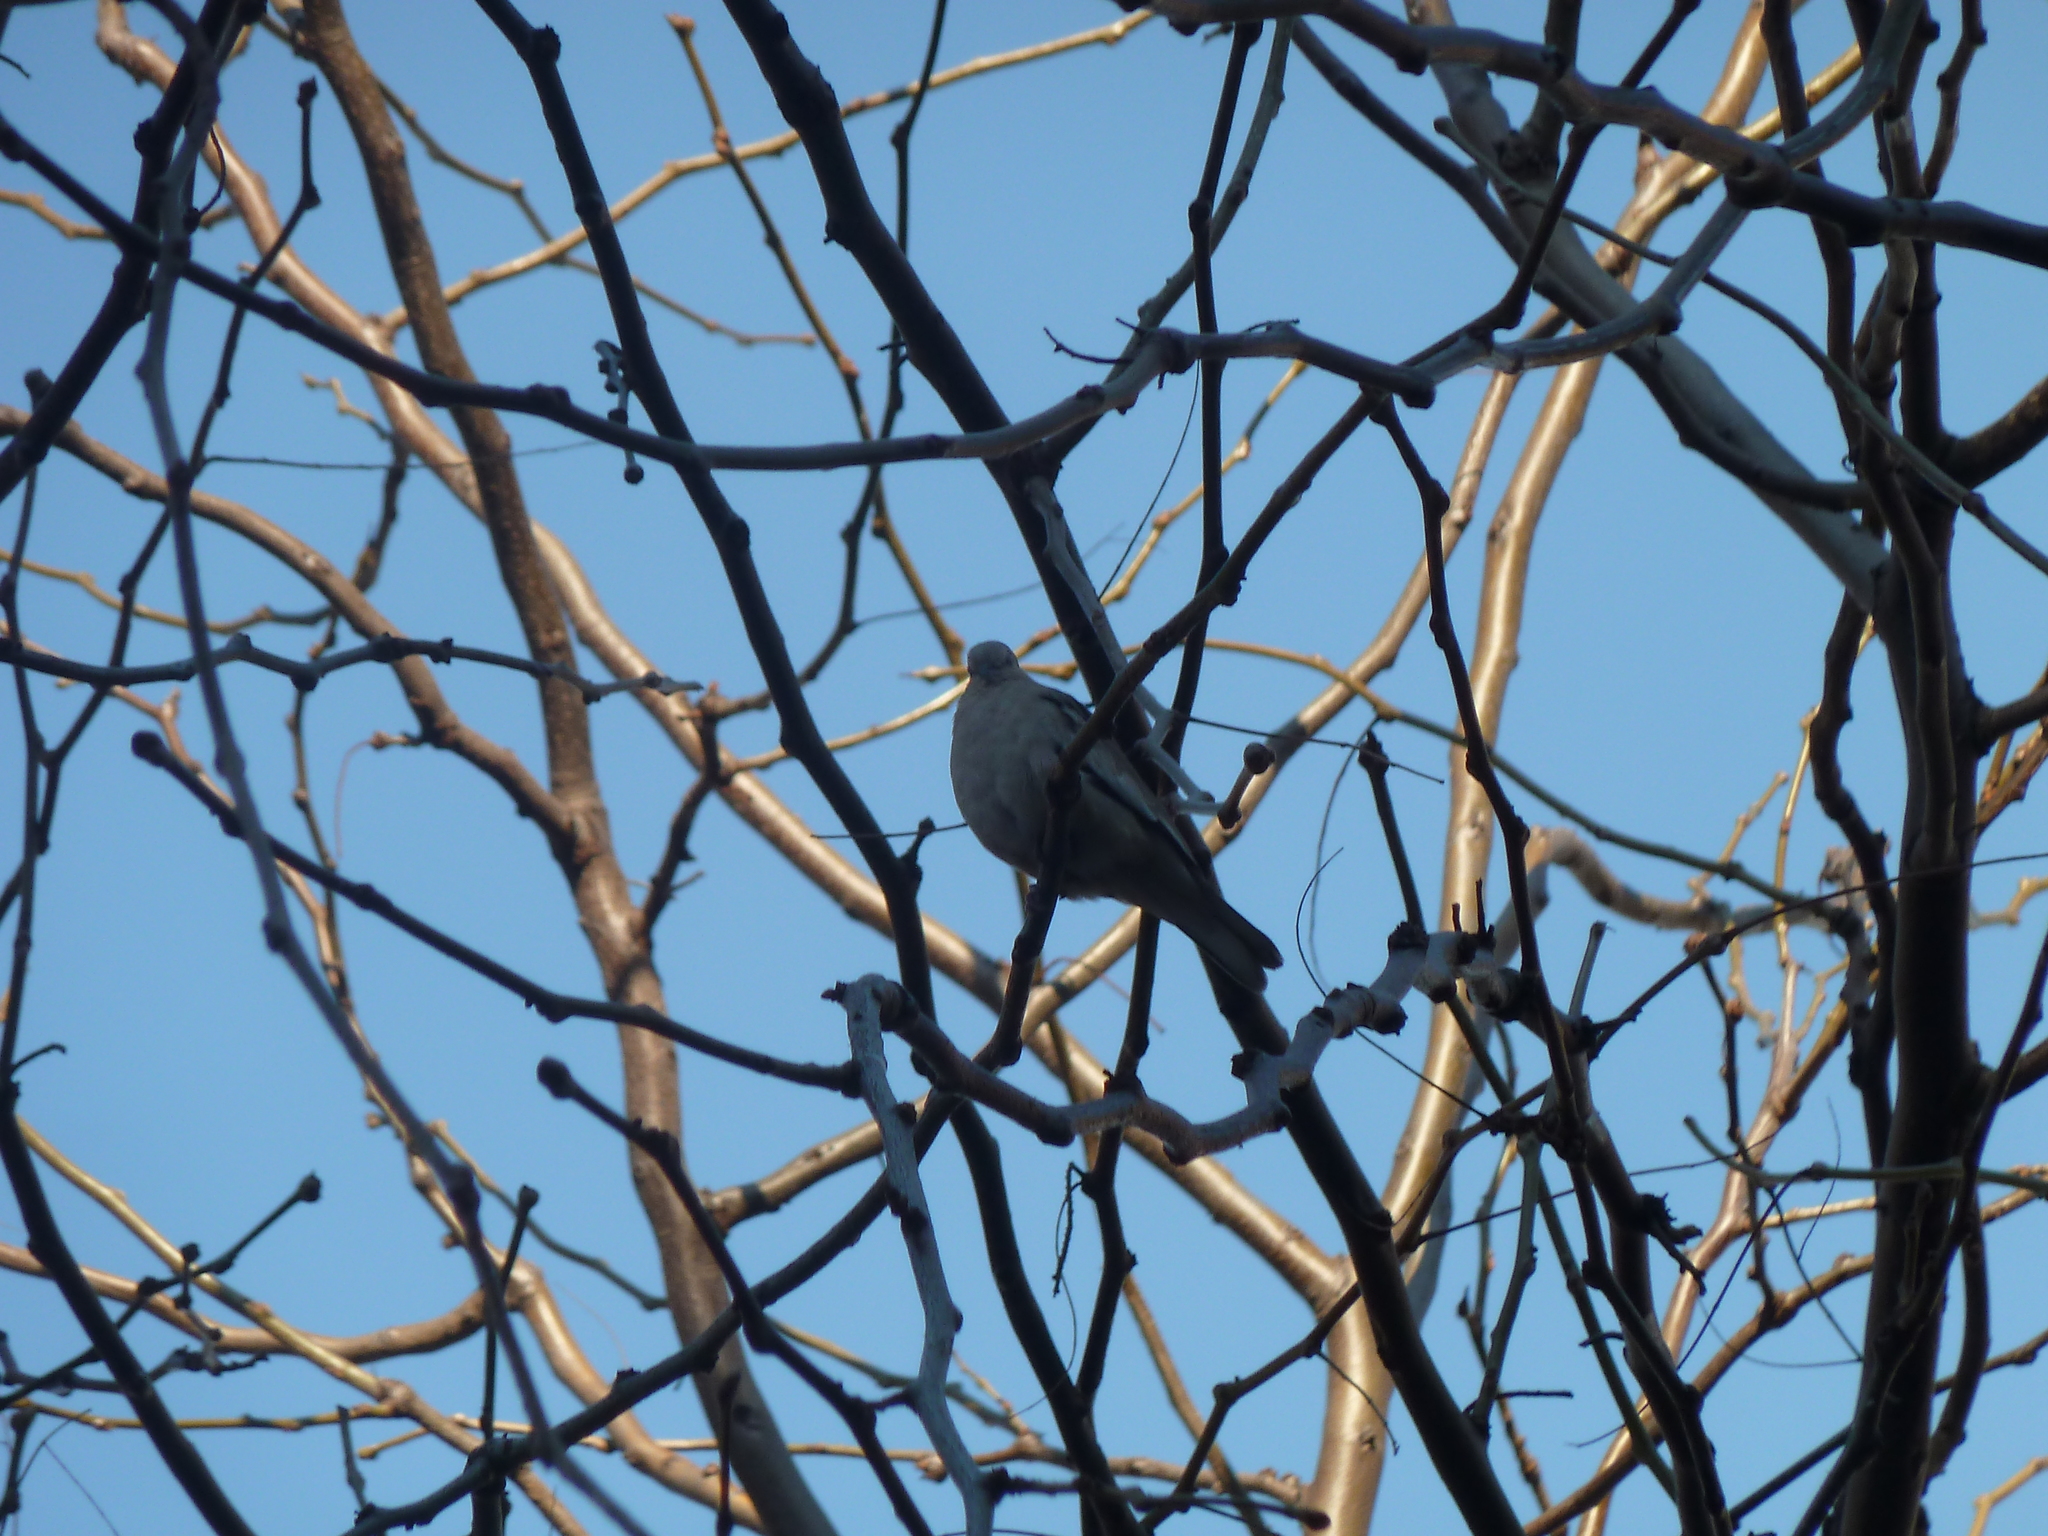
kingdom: Animalia
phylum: Chordata
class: Aves
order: Columbiformes
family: Columbidae
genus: Columbina
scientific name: Columbina picui
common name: Picui ground dove
